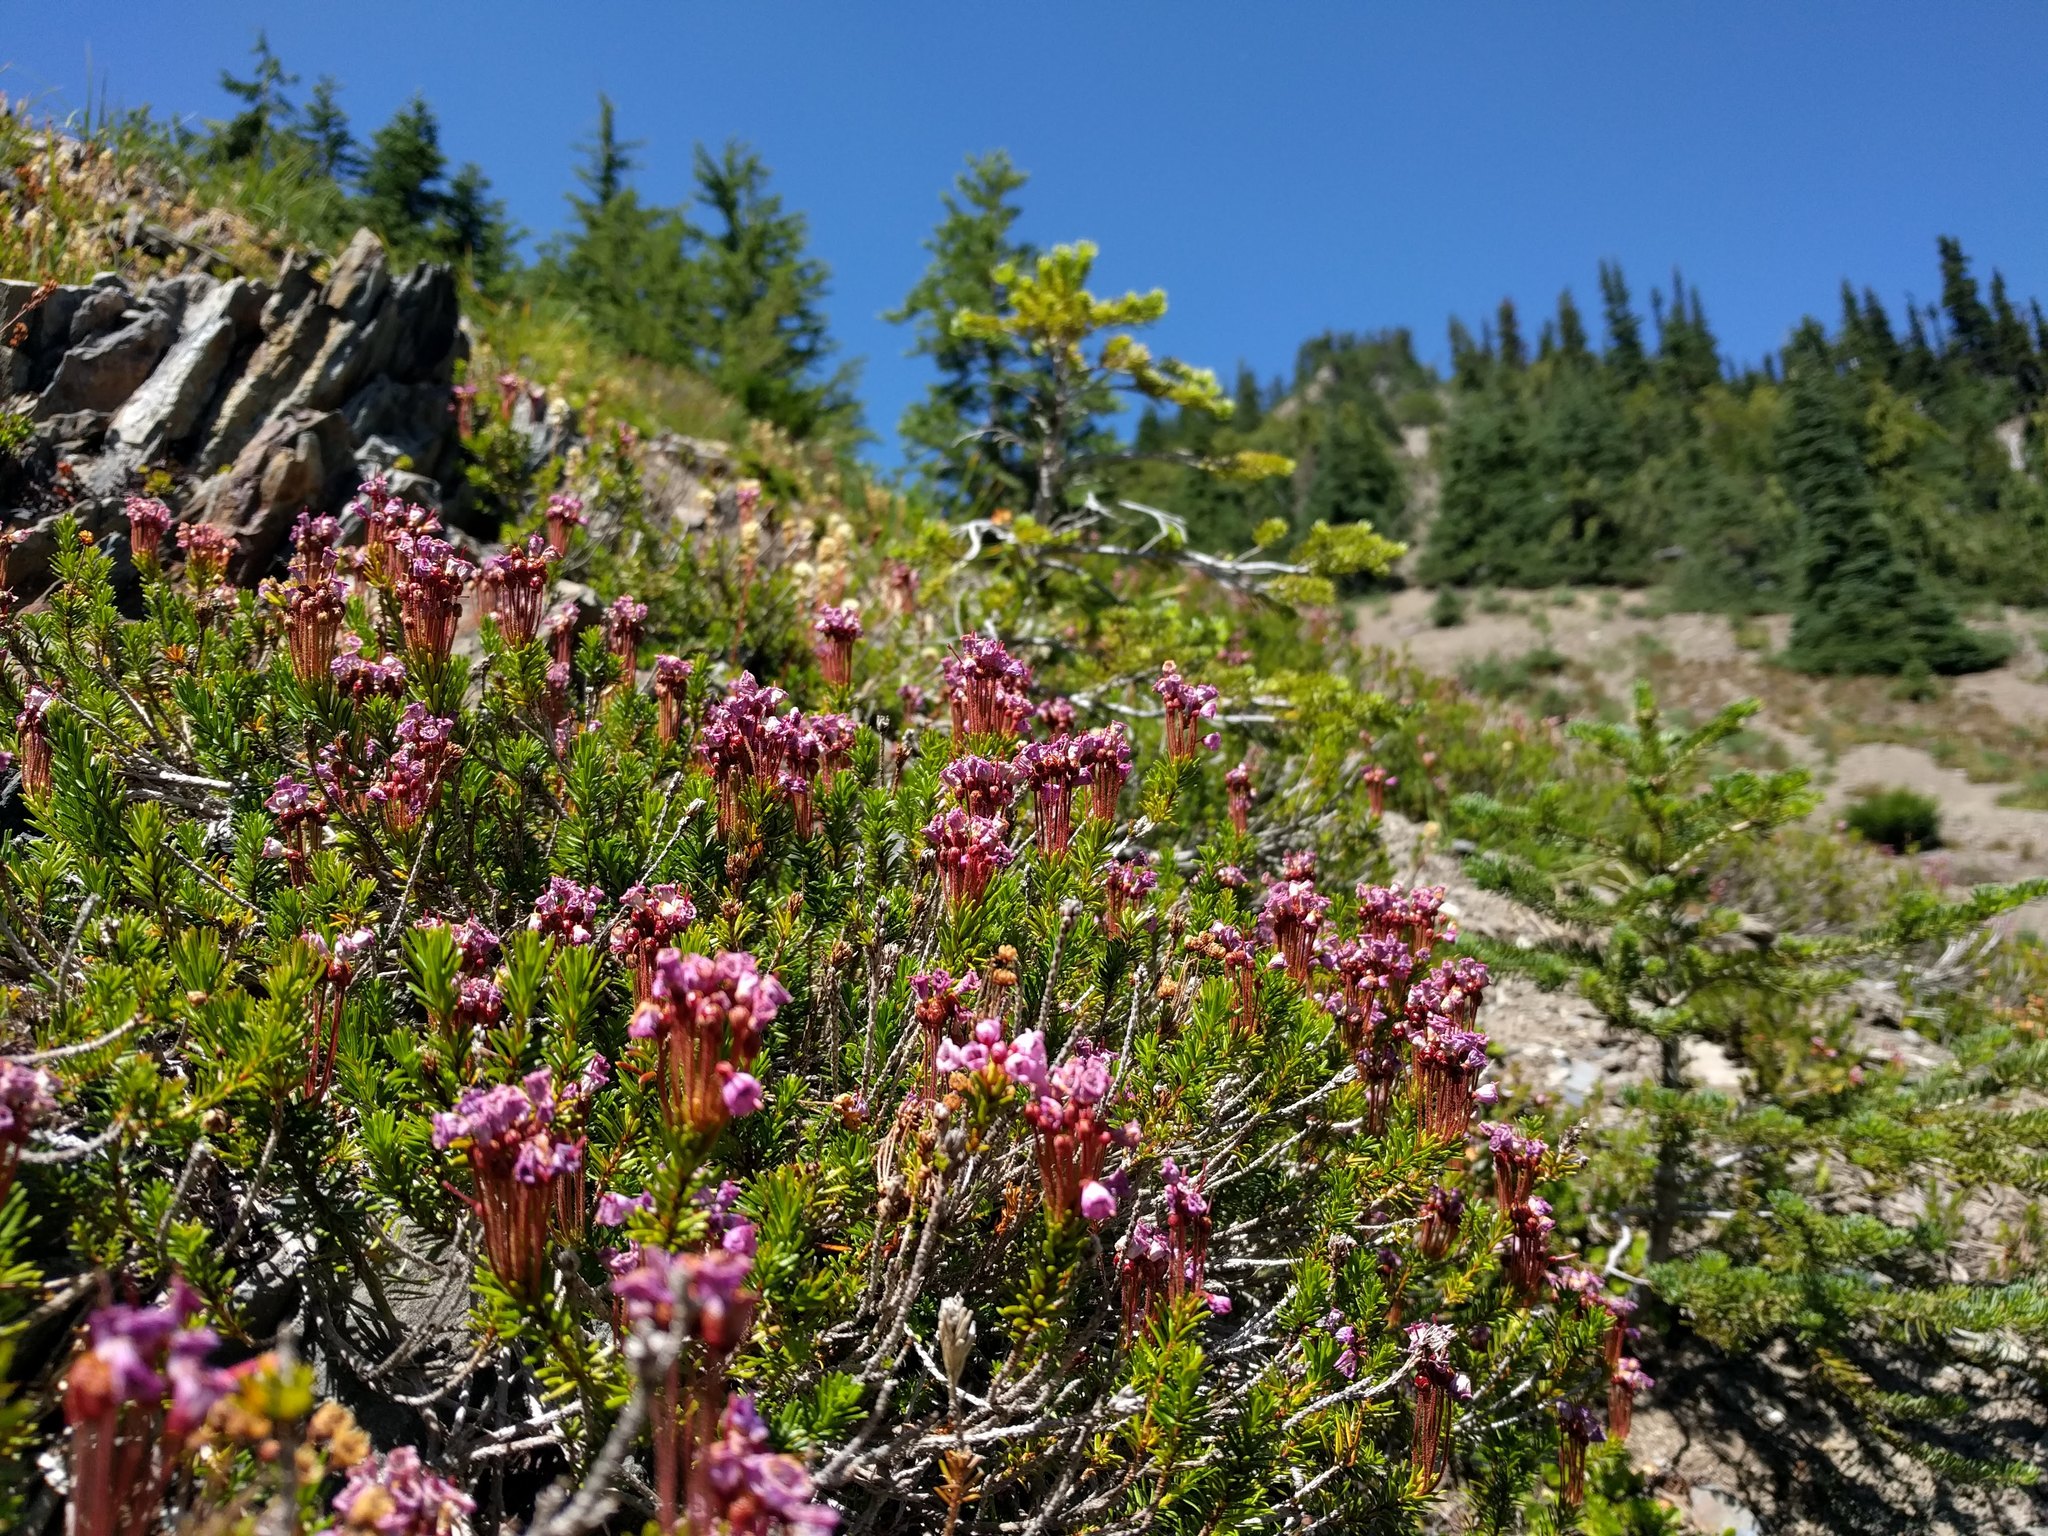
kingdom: Plantae
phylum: Tracheophyta
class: Magnoliopsida
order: Ericales
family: Ericaceae
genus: Phyllodoce
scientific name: Phyllodoce empetriformis
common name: Pink mountain heather
